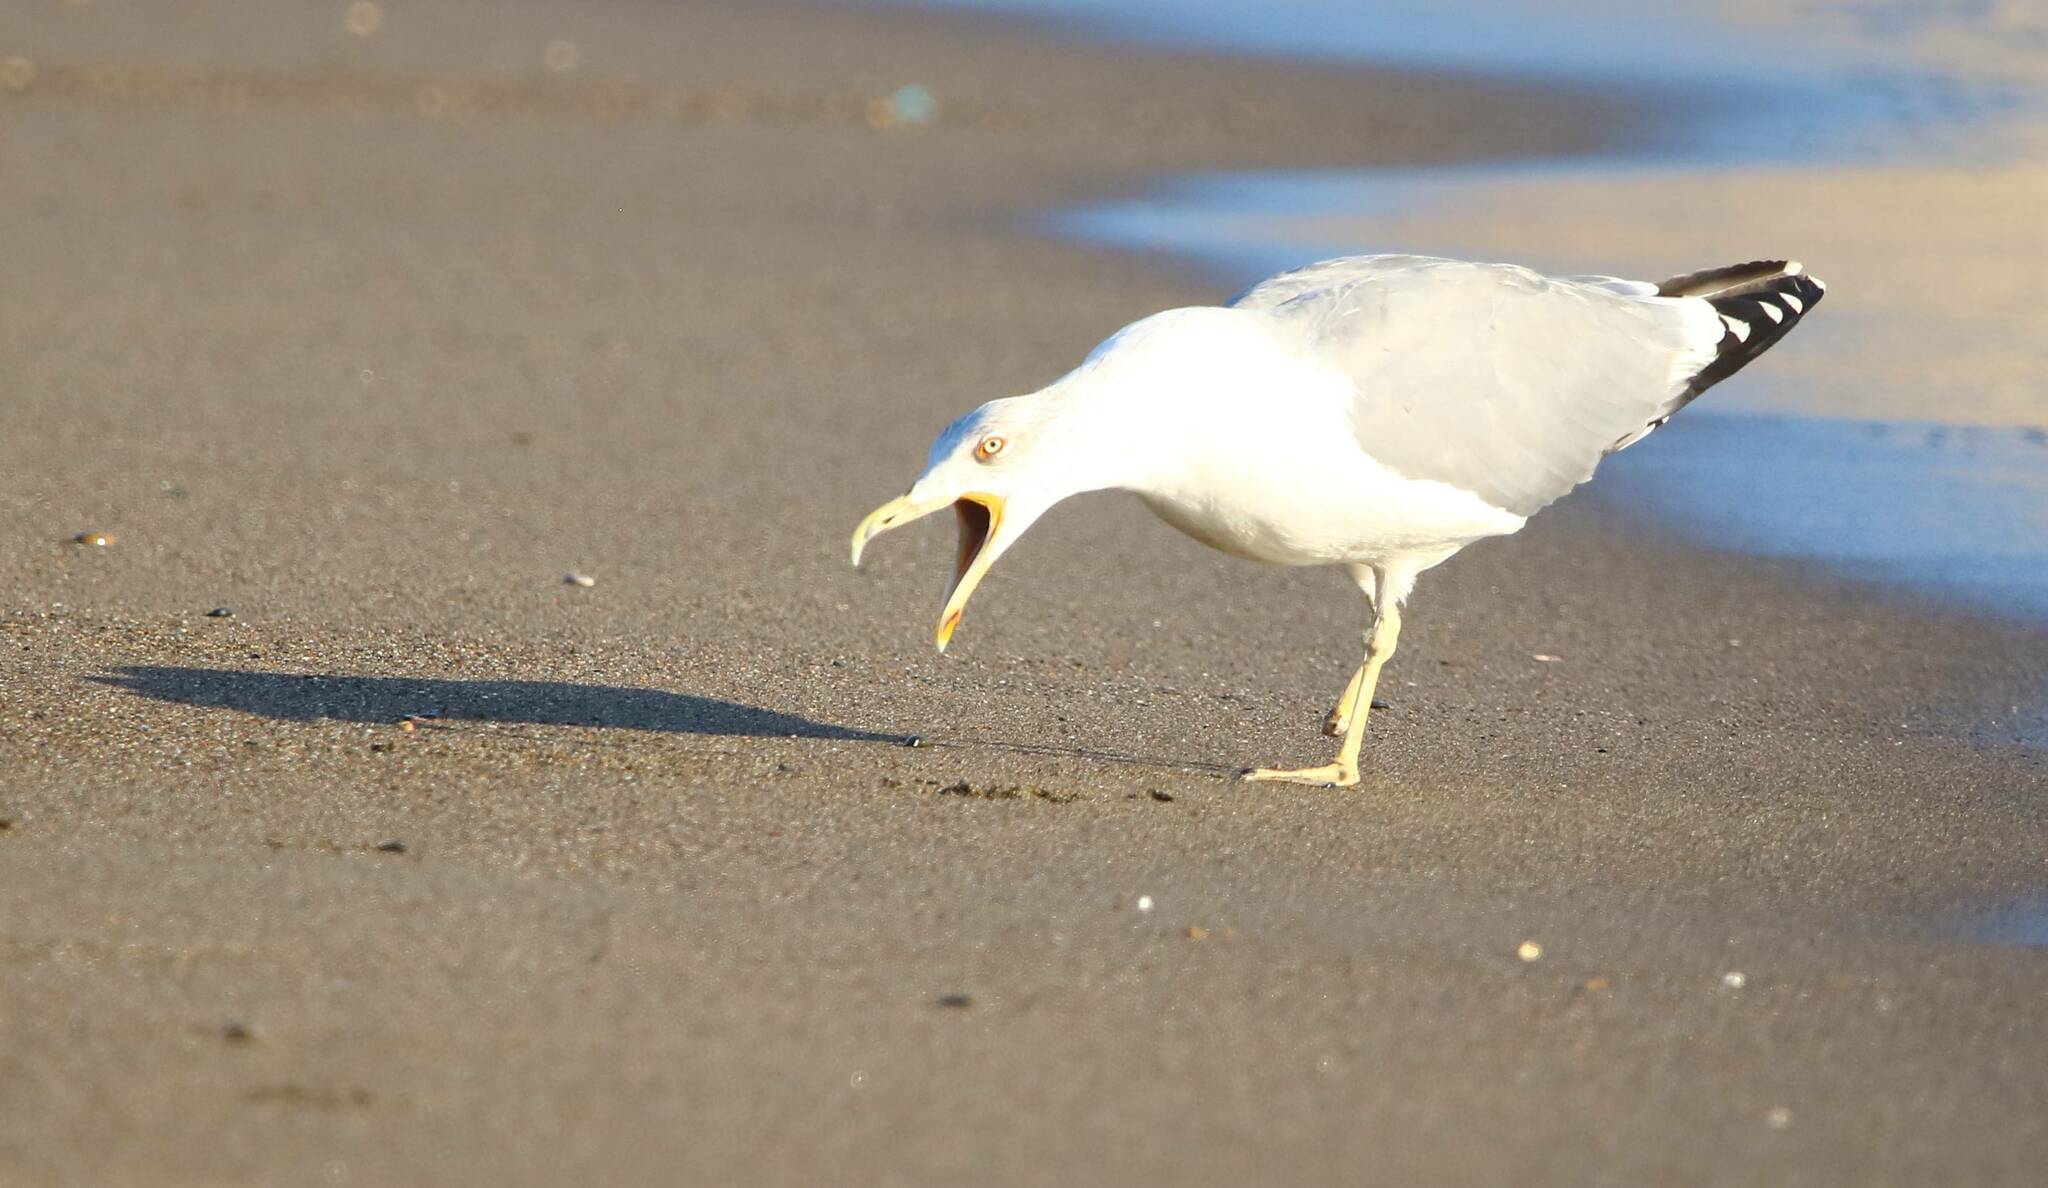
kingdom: Animalia
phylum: Chordata
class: Aves
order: Charadriiformes
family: Laridae
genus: Larus
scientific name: Larus michahellis
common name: Yellow-legged gull
